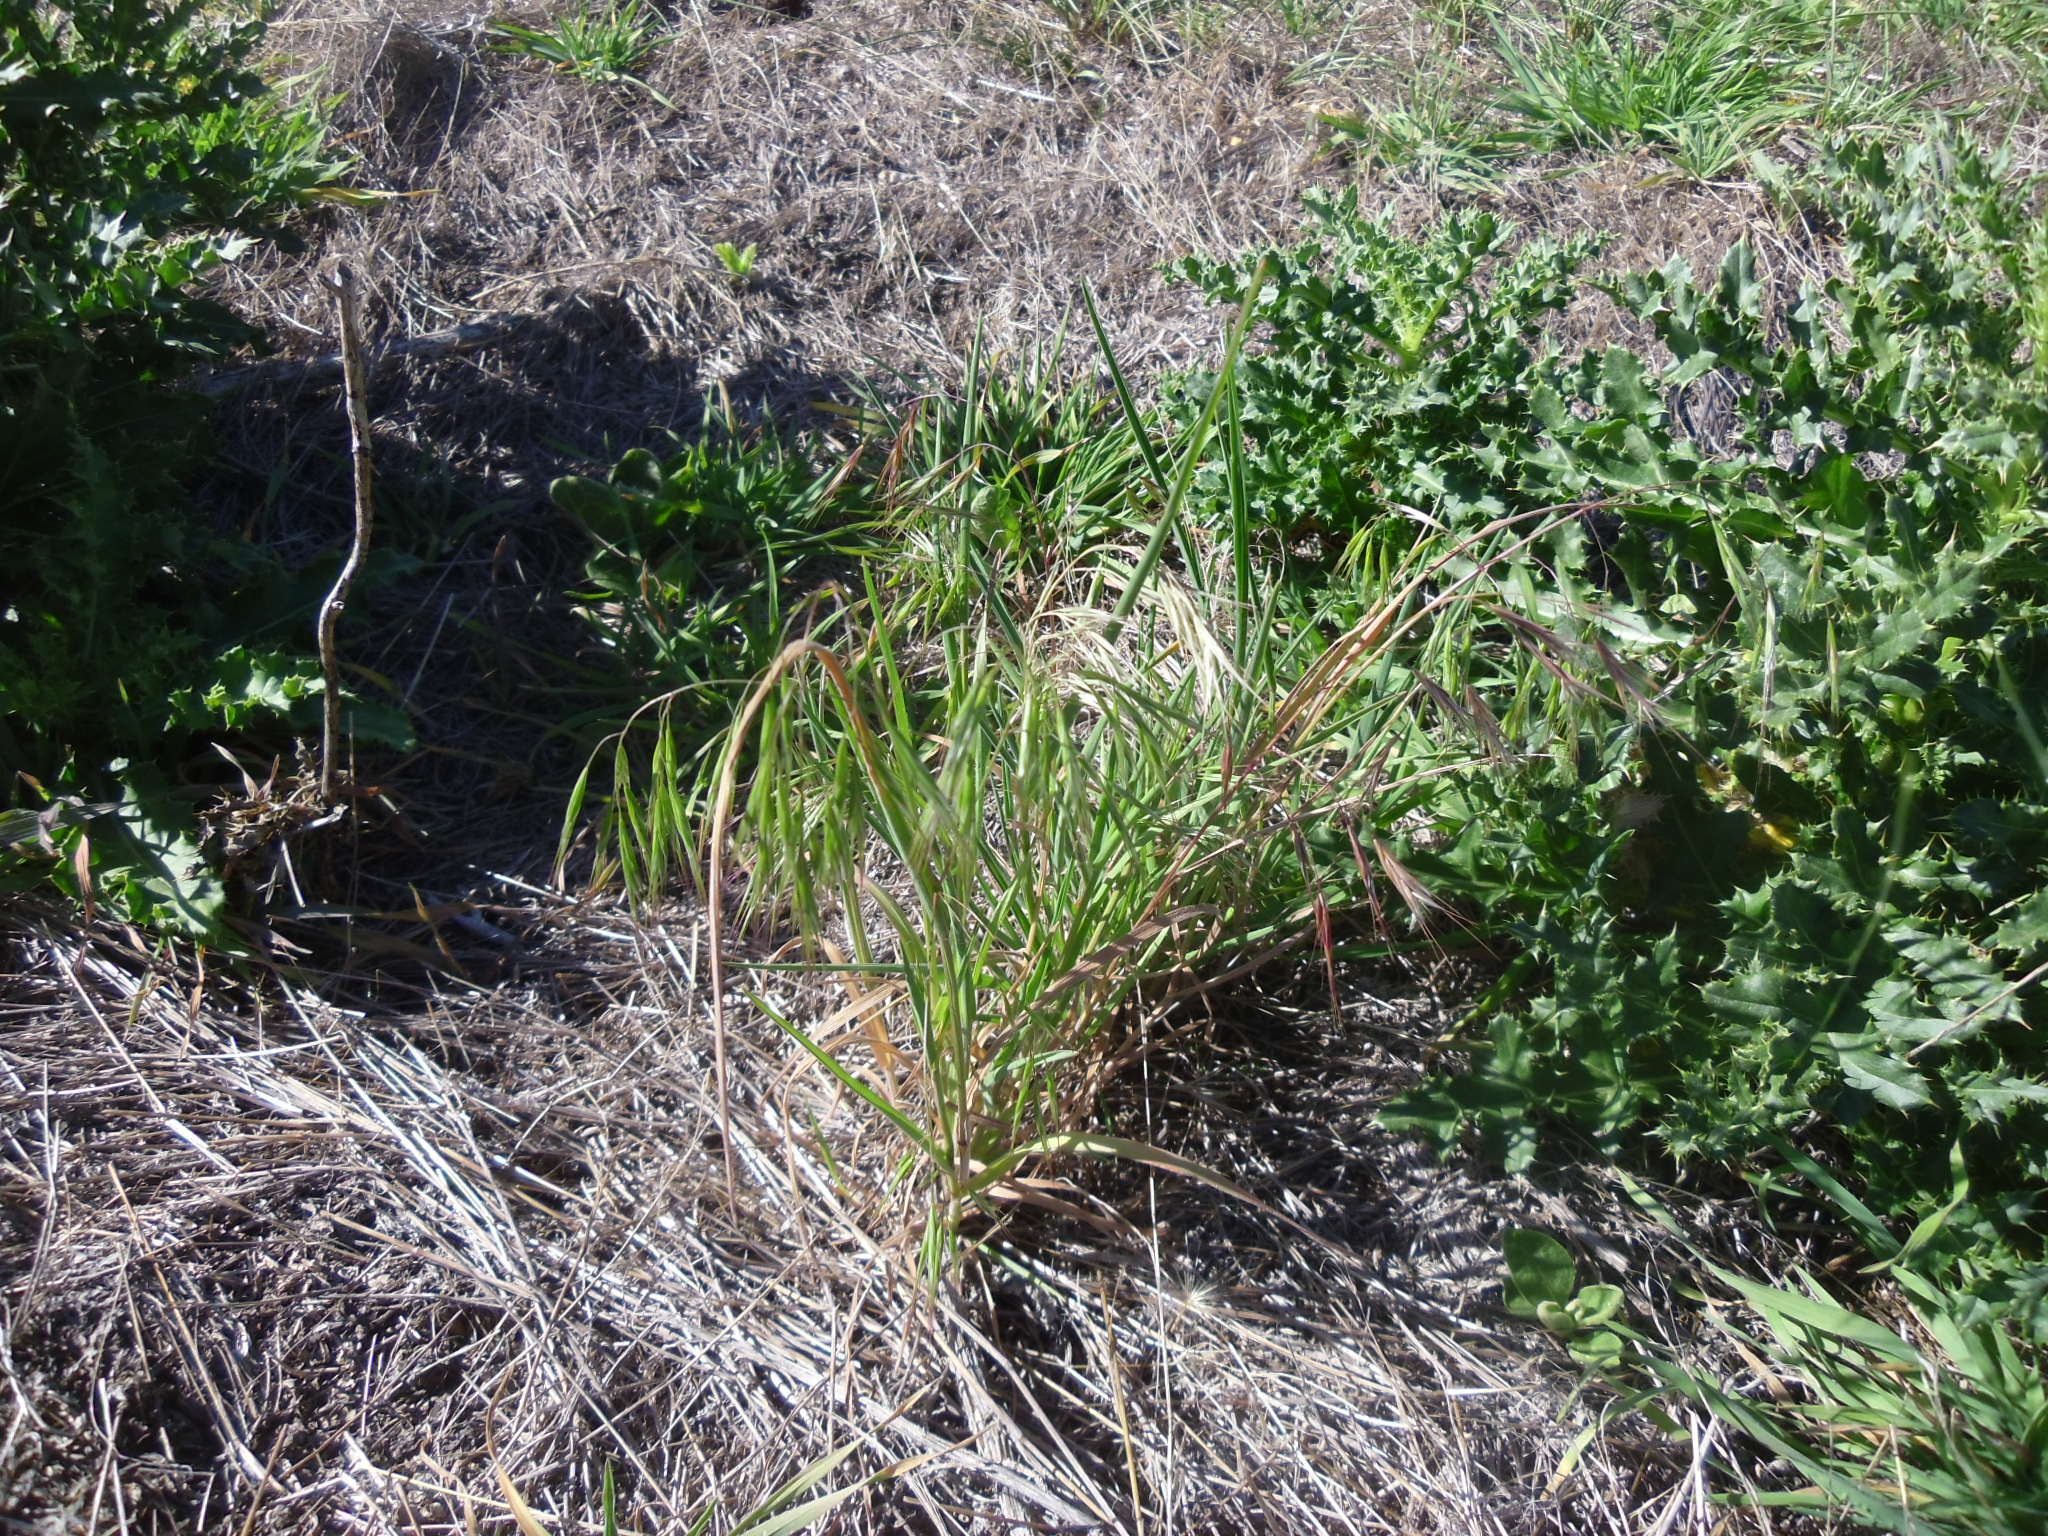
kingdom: Plantae
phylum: Tracheophyta
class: Liliopsida
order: Poales
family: Poaceae
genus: Bromus
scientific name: Bromus tectorum
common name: Cheatgrass
